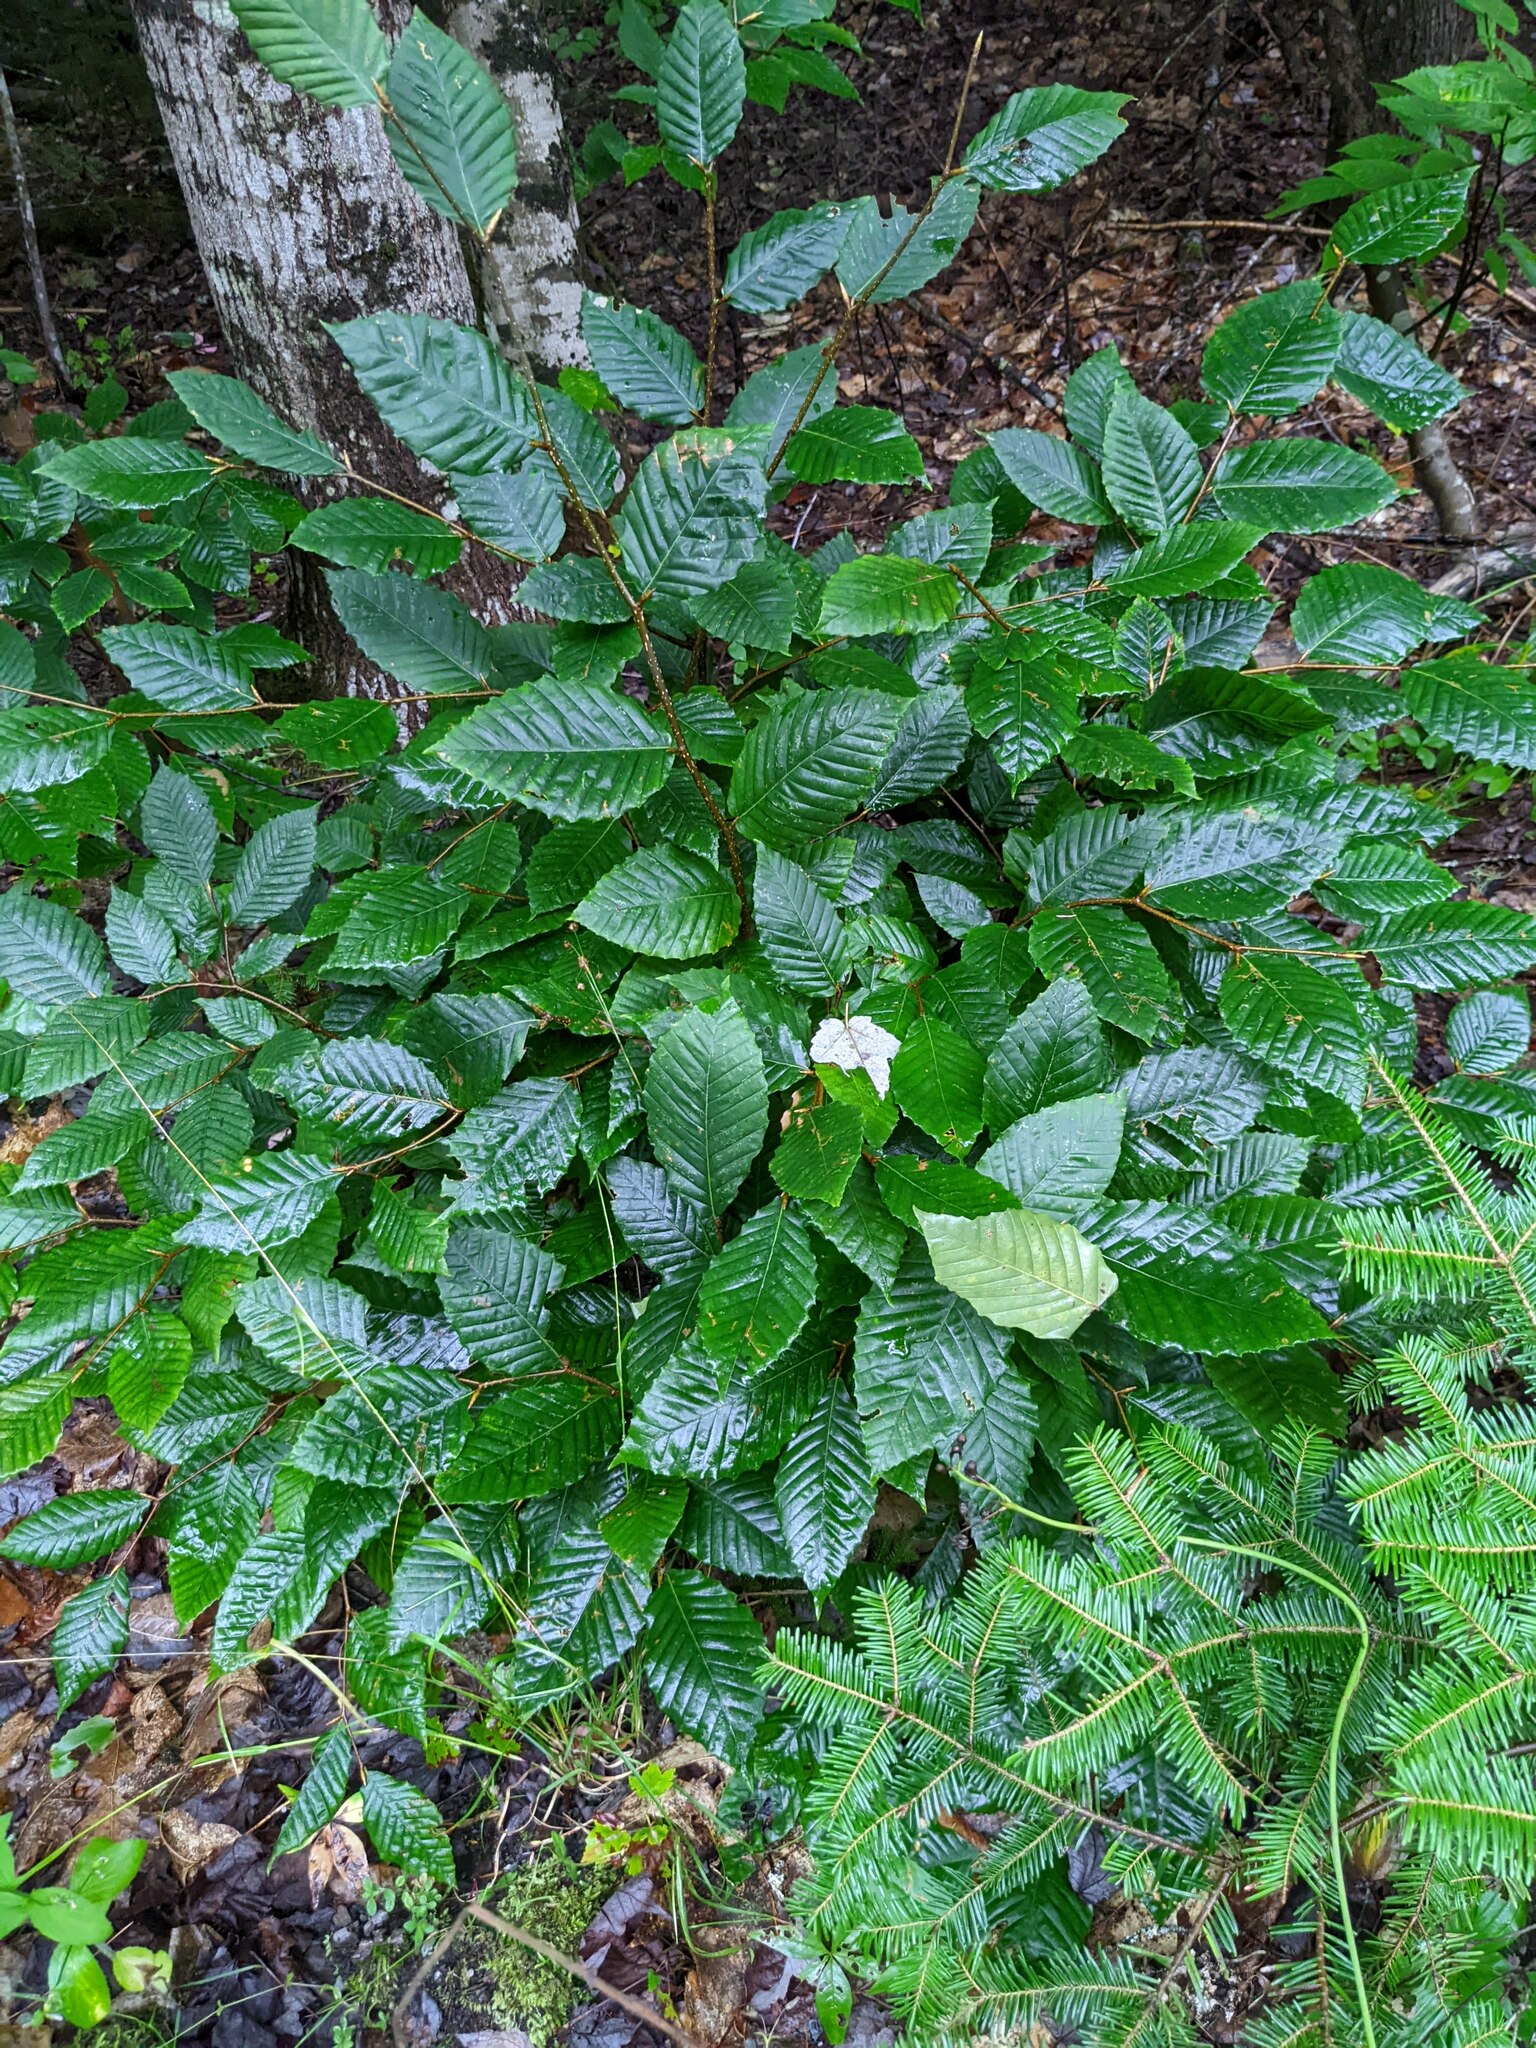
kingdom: Plantae
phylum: Tracheophyta
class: Magnoliopsida
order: Fagales
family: Fagaceae
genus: Fagus
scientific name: Fagus grandifolia
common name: American beech
